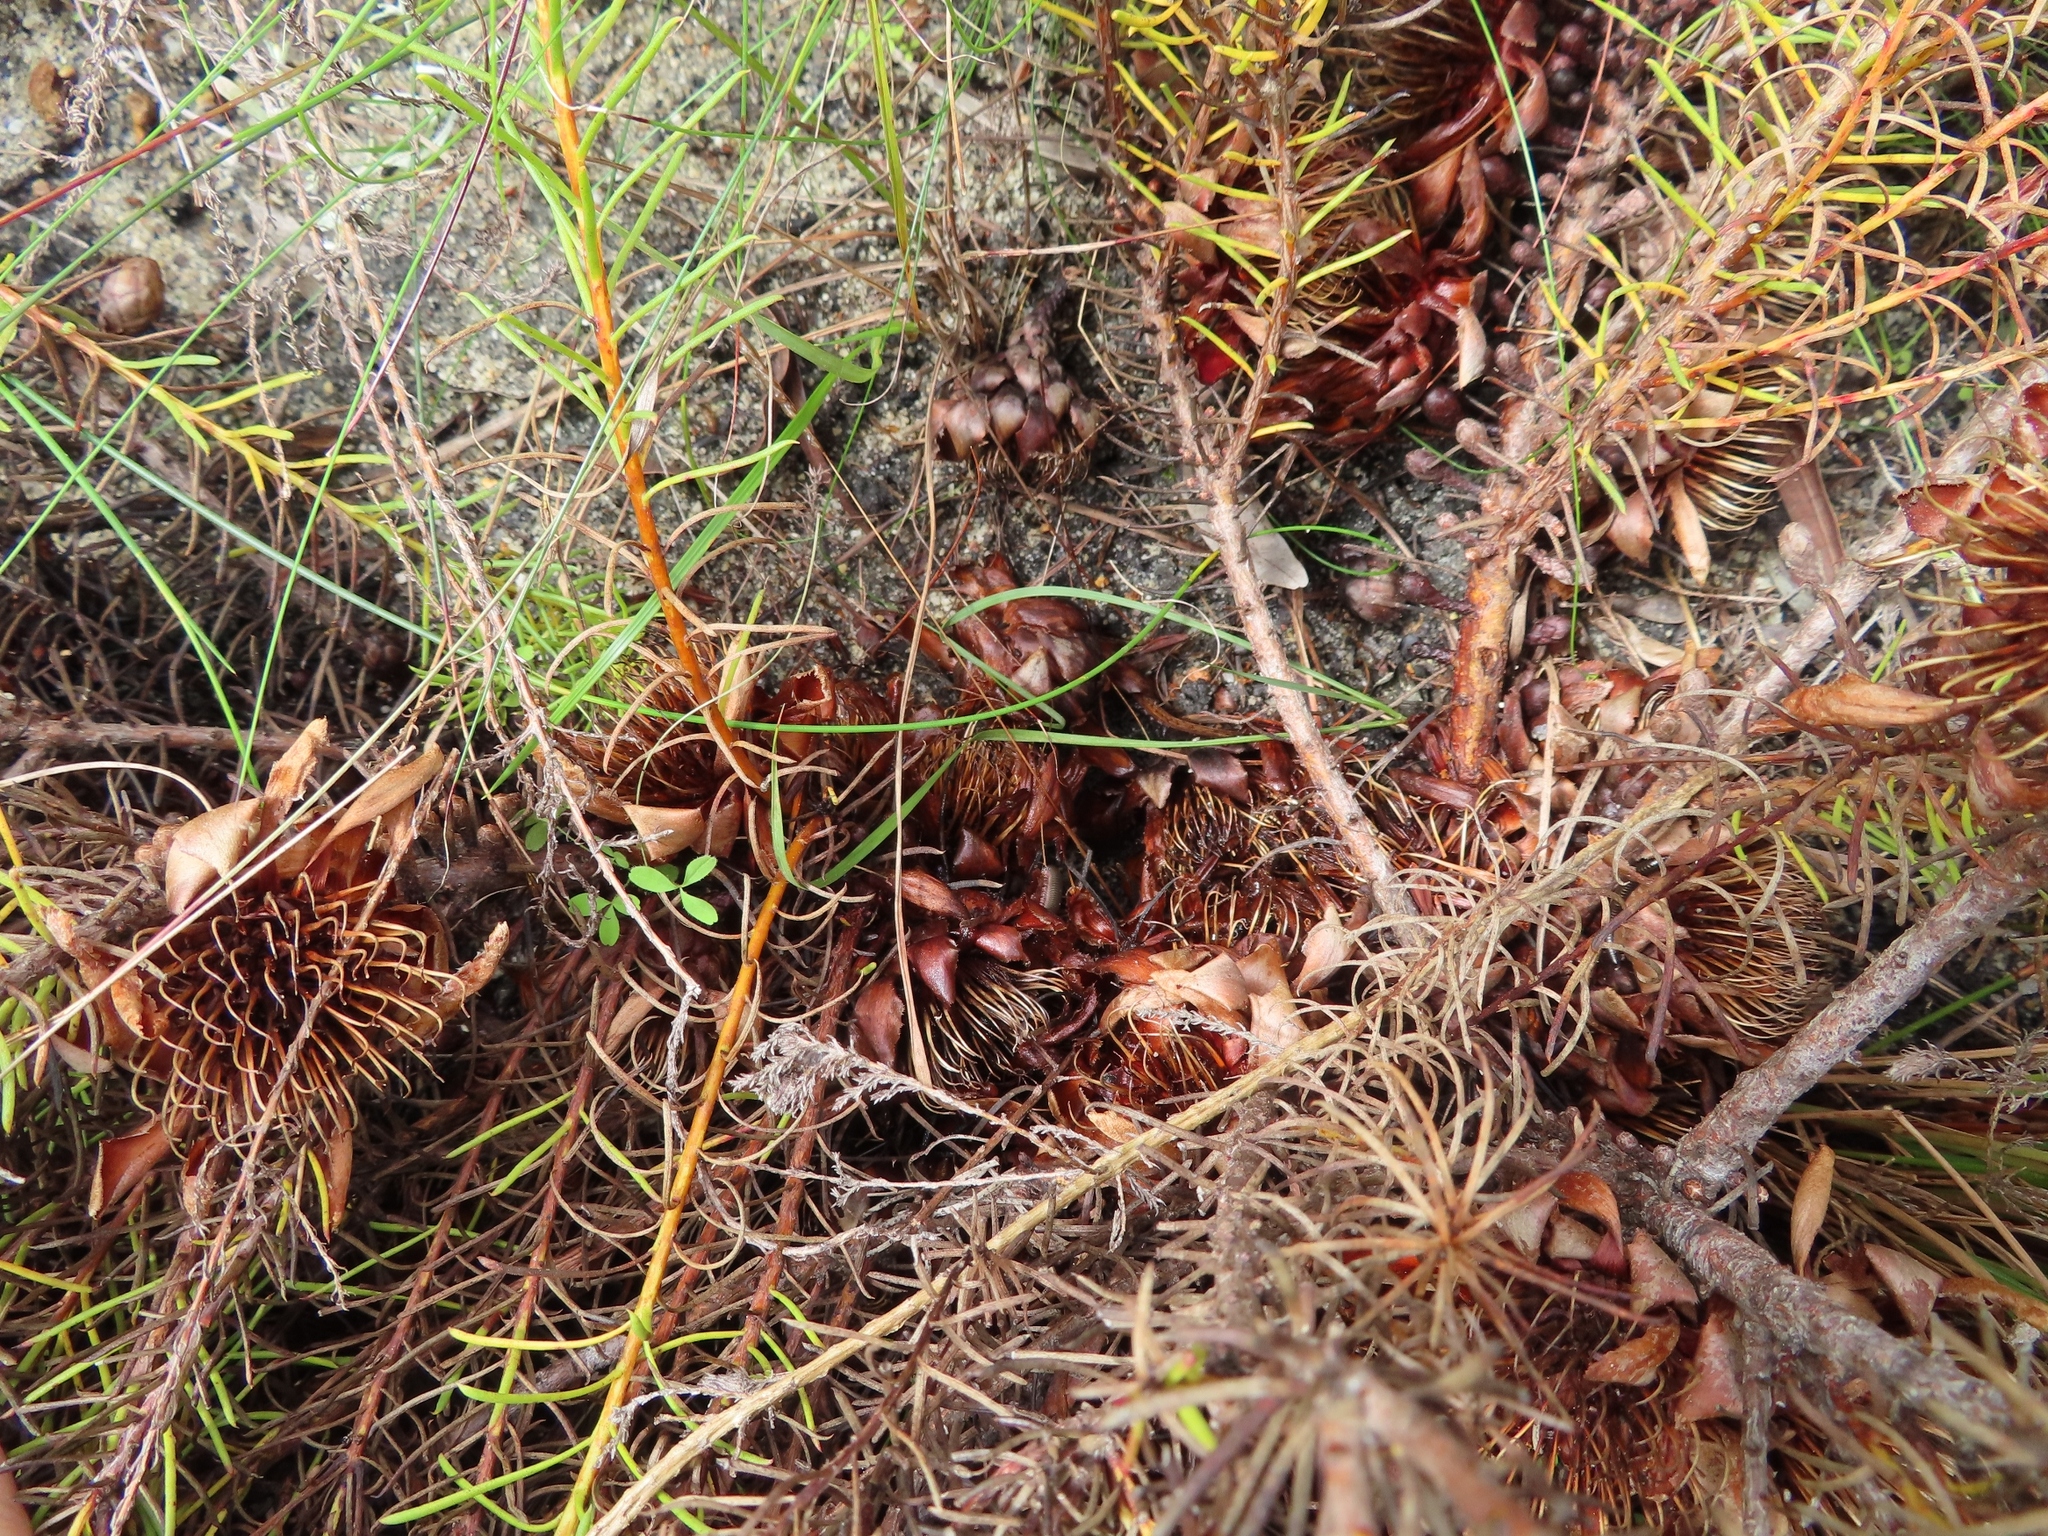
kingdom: Plantae
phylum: Tracheophyta
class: Magnoliopsida
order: Proteales
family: Proteaceae
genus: Protea
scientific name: Protea subulifolia
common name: Awl-leaf sugarbush
